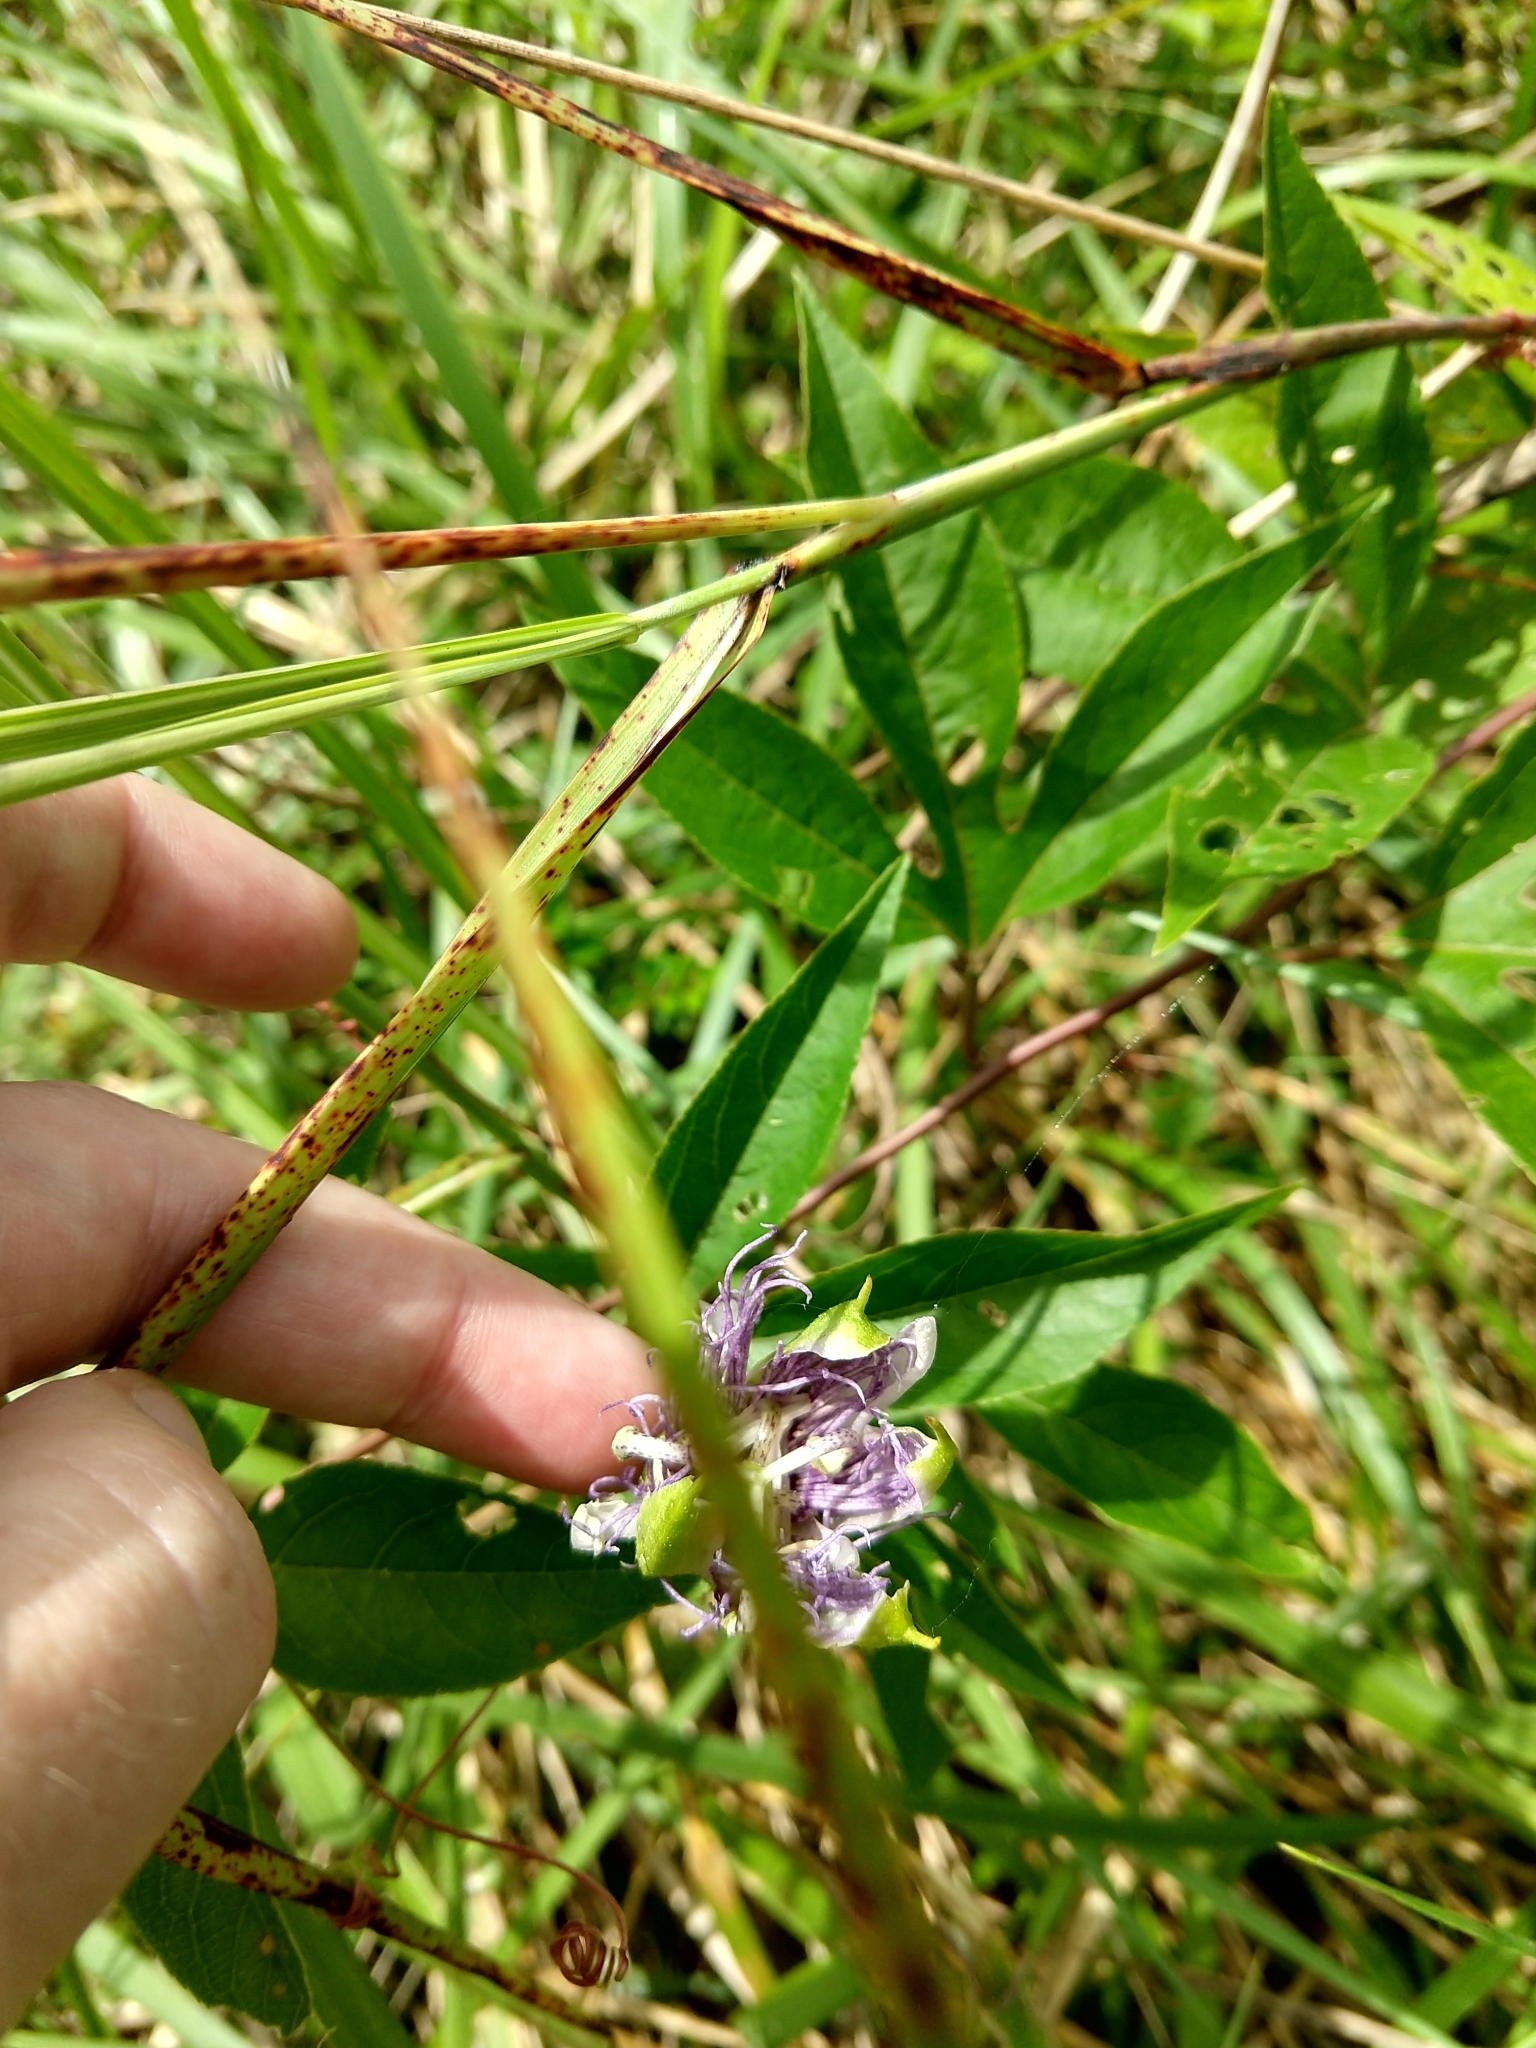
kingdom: Plantae
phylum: Tracheophyta
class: Magnoliopsida
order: Malpighiales
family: Passifloraceae
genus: Passiflora
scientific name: Passiflora incarnata
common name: Apricot-vine
